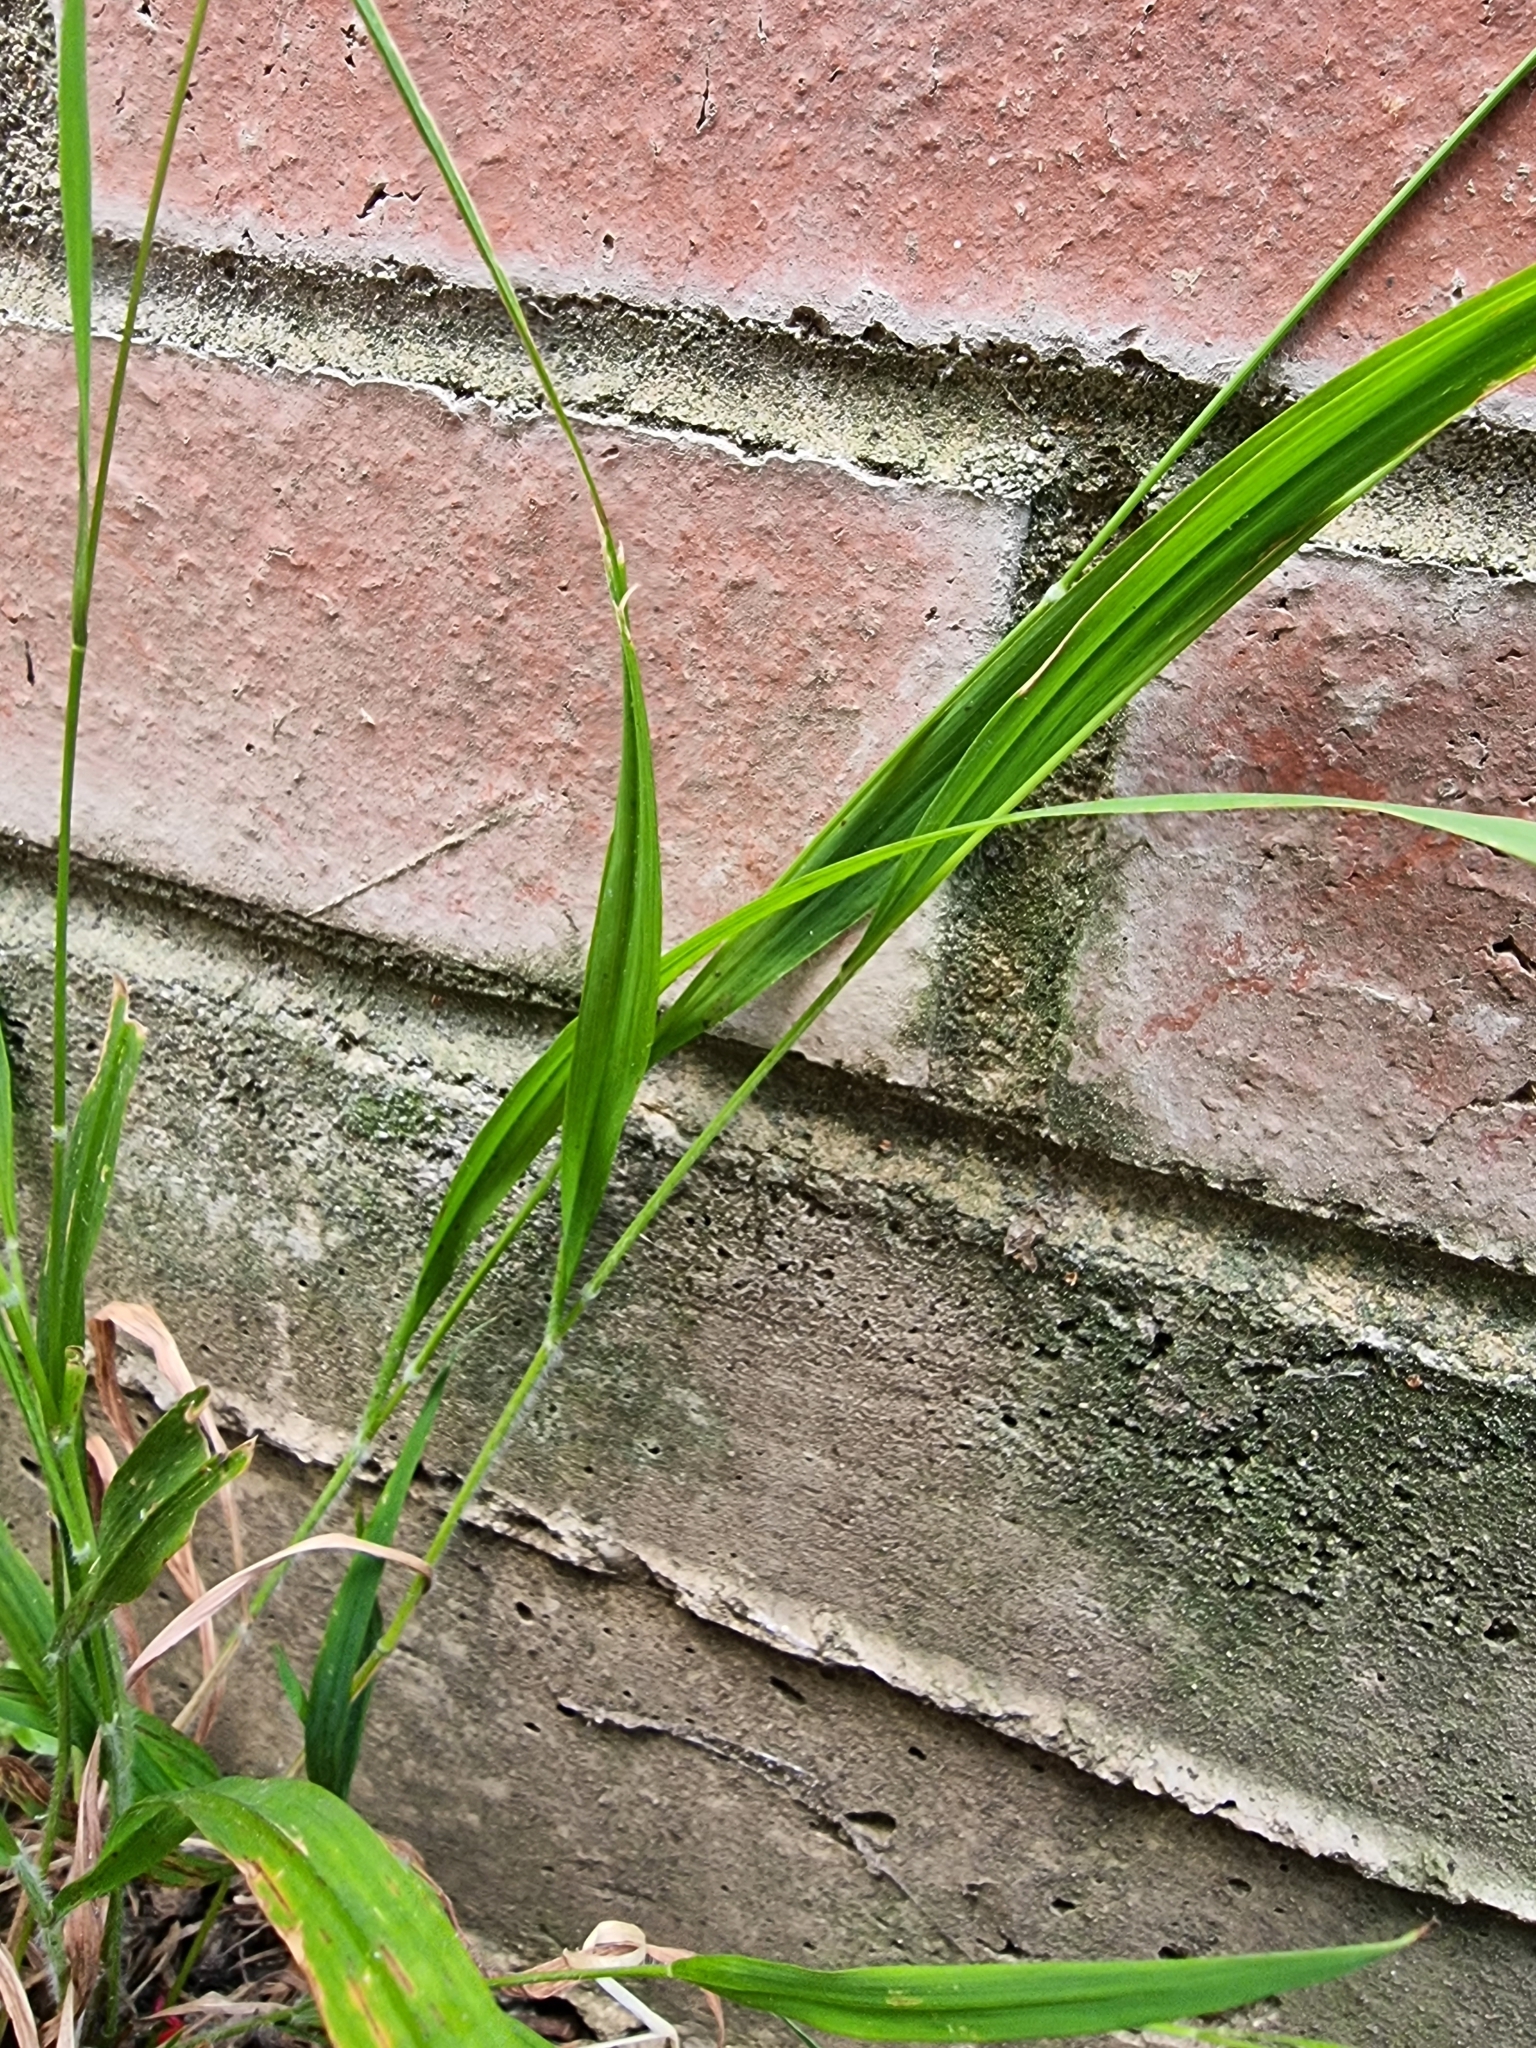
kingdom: Plantae
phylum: Tracheophyta
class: Liliopsida
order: Poales
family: Poaceae
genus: Brachypodium
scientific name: Brachypodium sylvaticum
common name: False-brome
